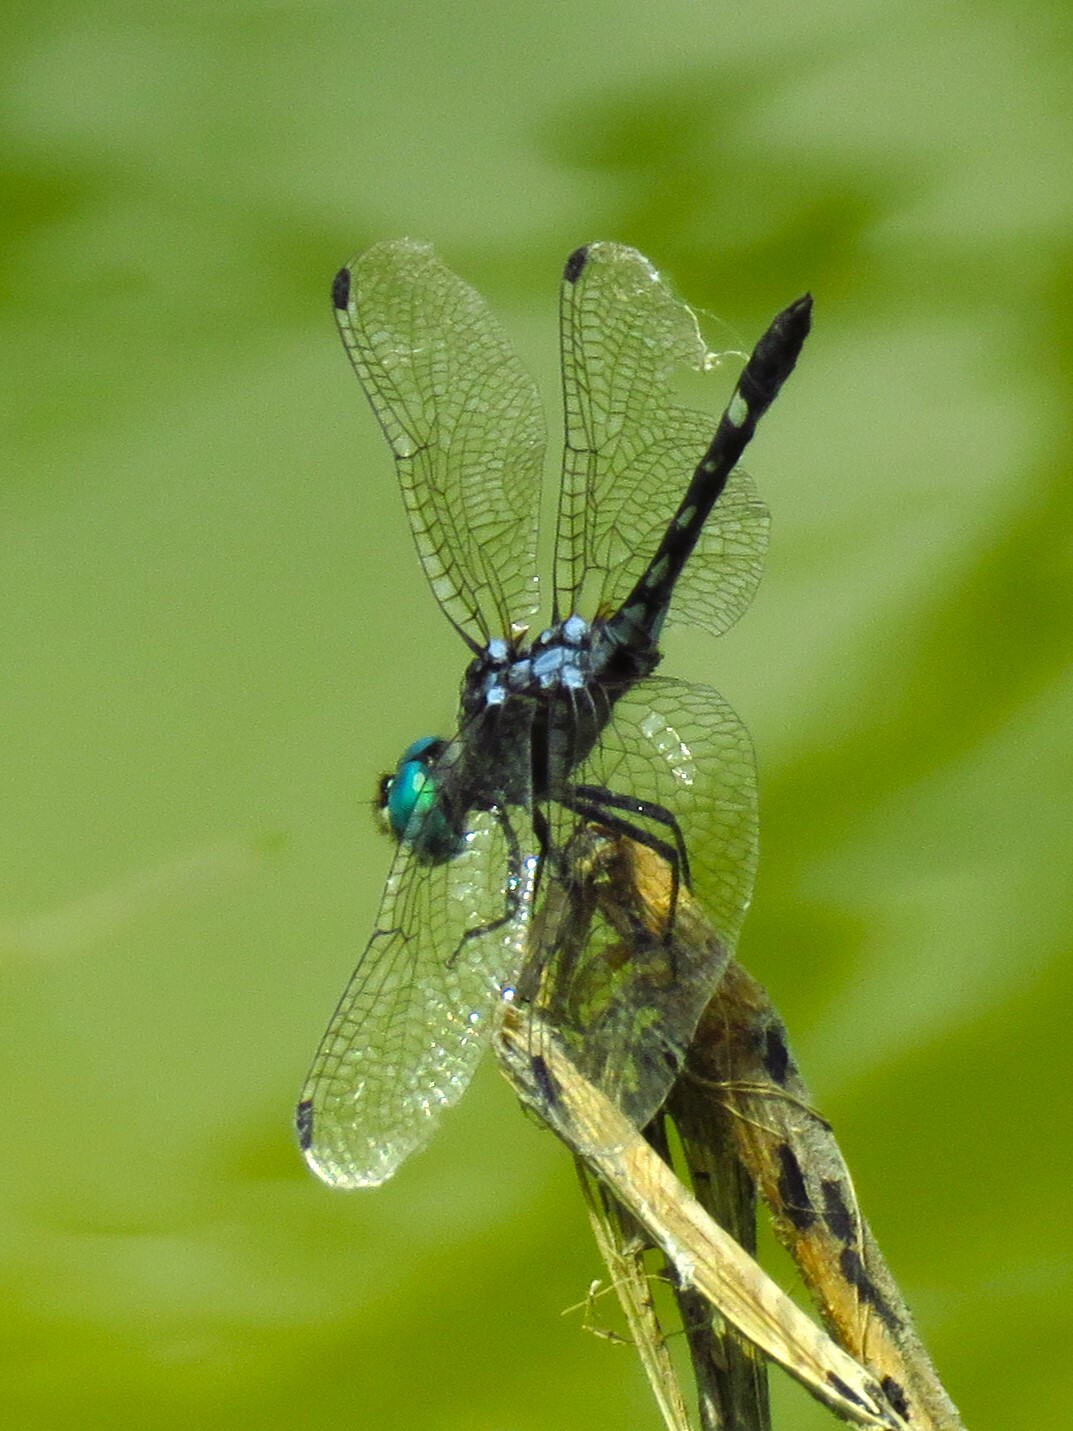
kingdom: Animalia
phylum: Arthropoda
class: Insecta
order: Odonata
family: Libellulidae
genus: Micrathyria
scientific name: Micrathyria hagenii
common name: Thornbush dasher
